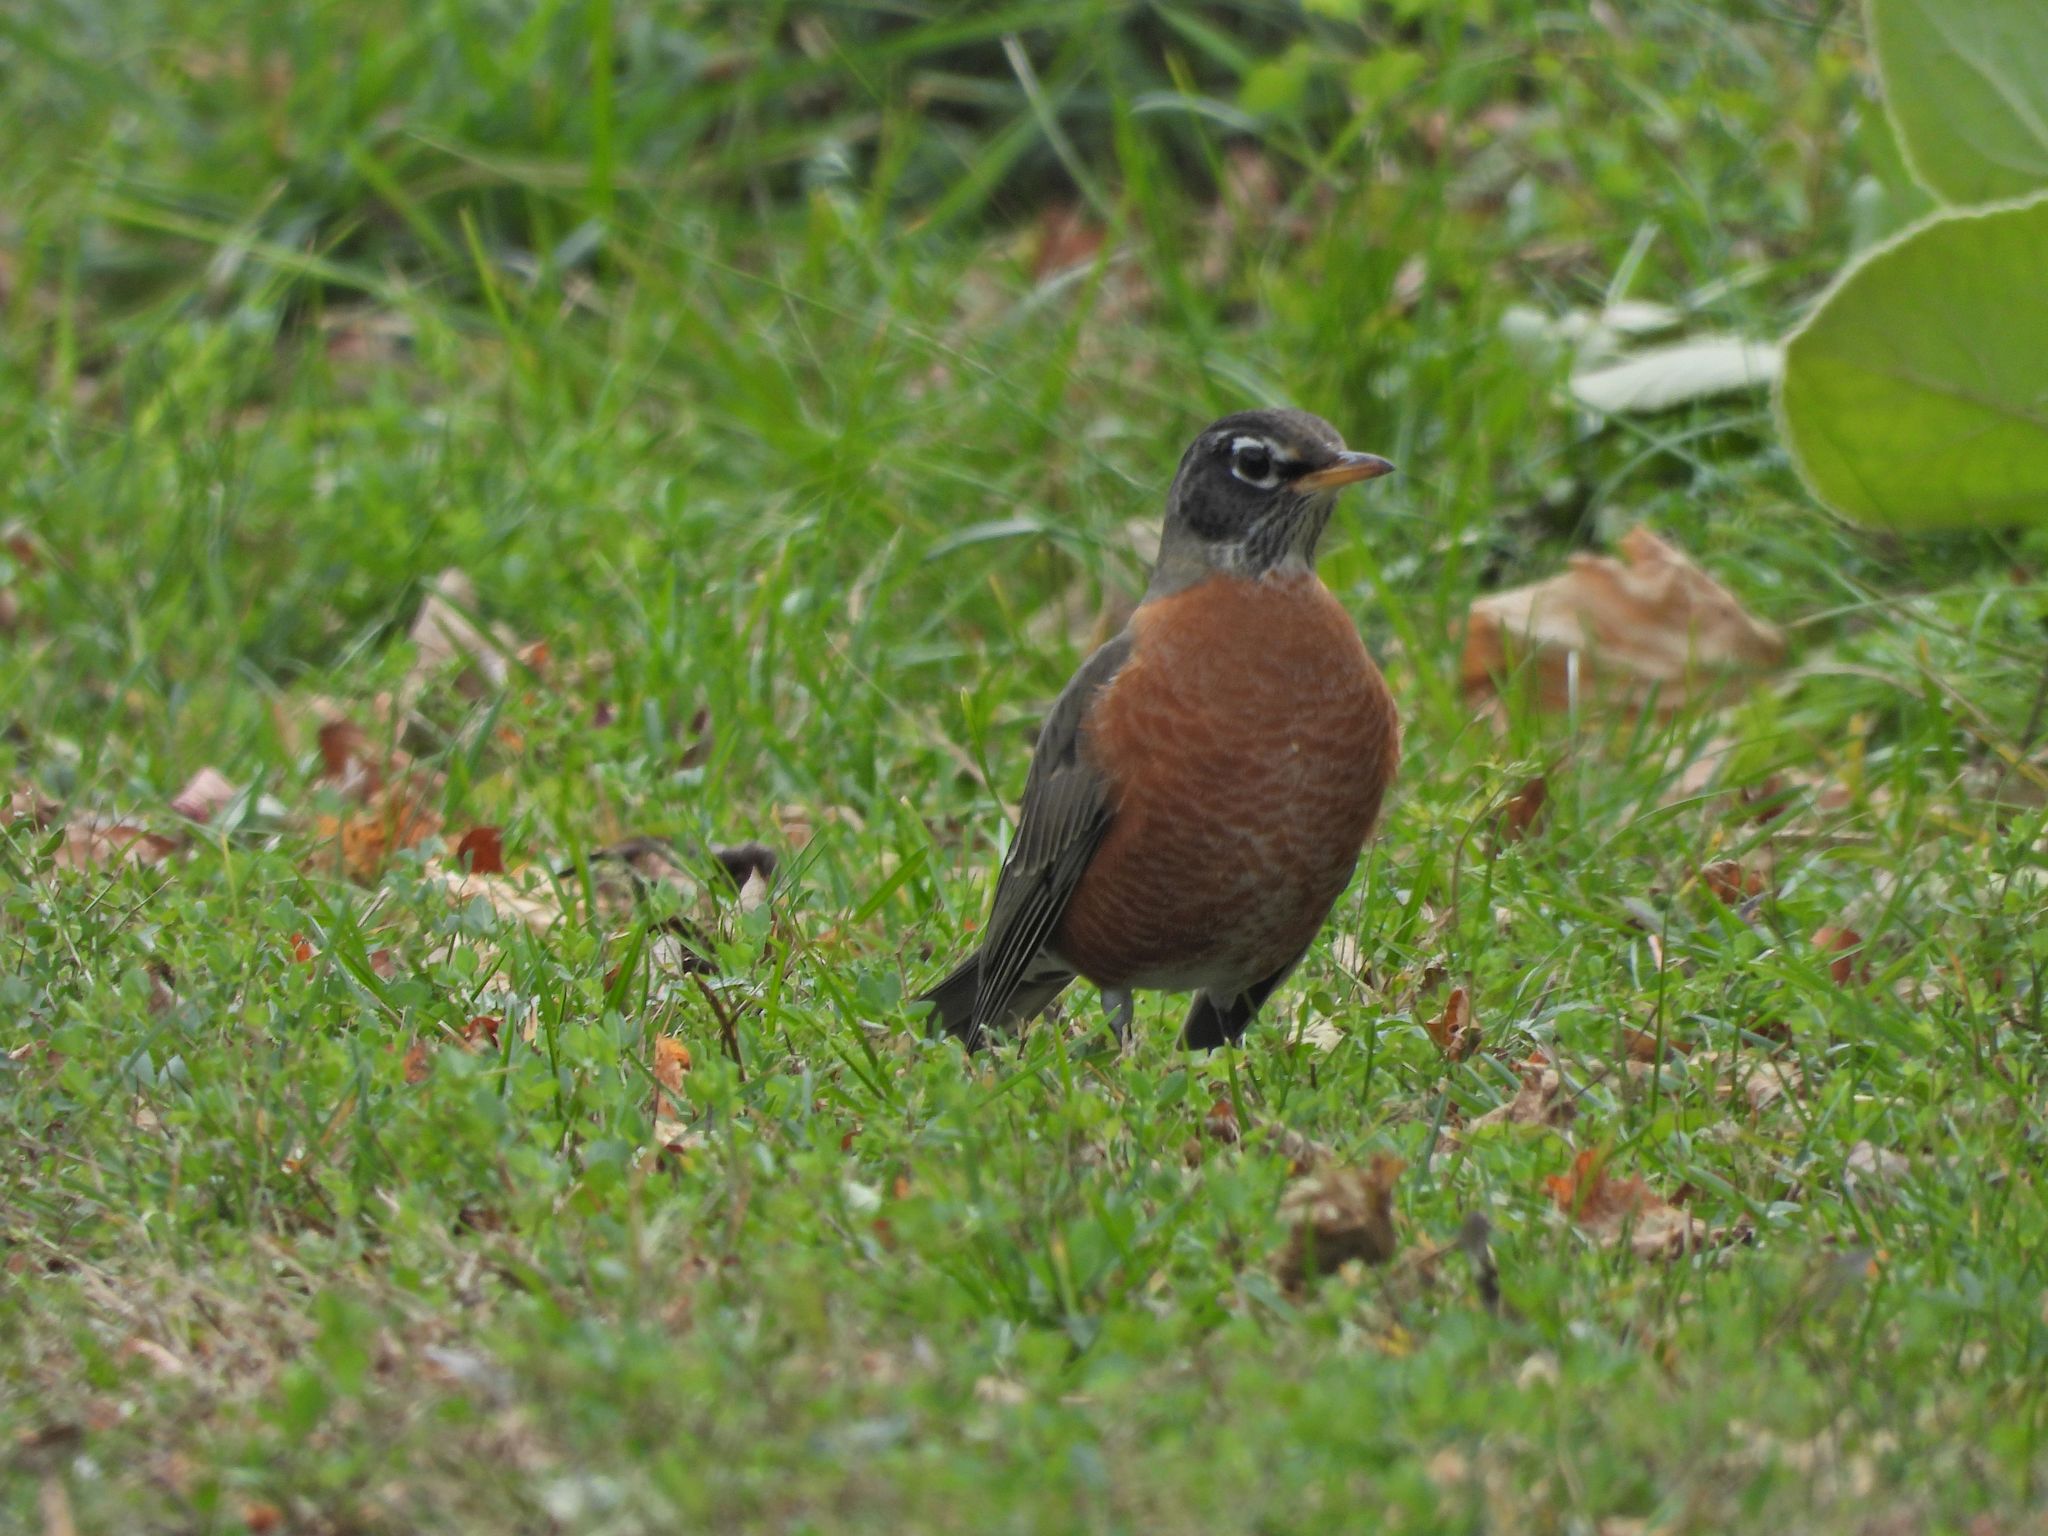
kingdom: Animalia
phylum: Chordata
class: Aves
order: Passeriformes
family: Turdidae
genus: Turdus
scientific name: Turdus migratorius
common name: American robin
